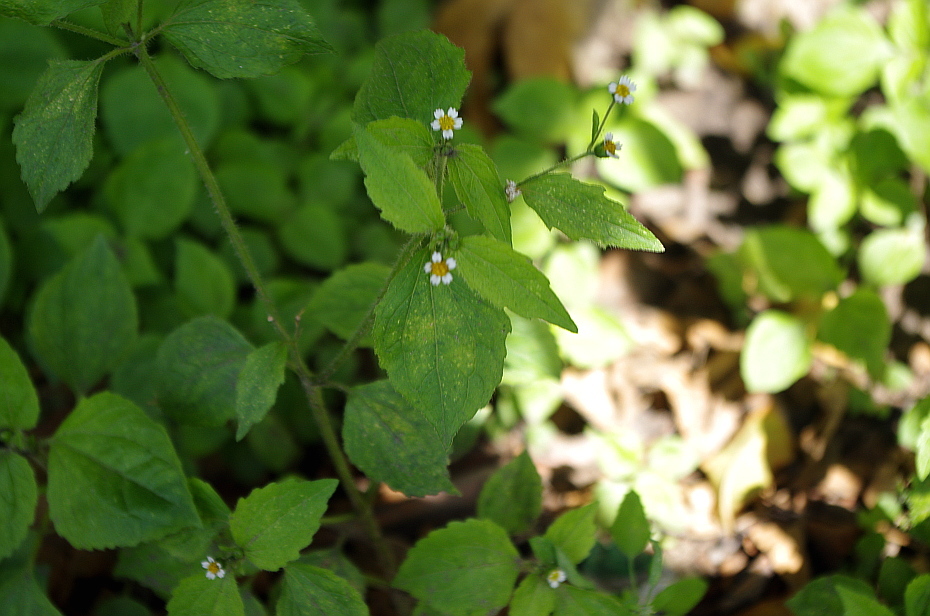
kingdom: Plantae
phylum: Tracheophyta
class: Magnoliopsida
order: Asterales
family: Asteraceae
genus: Galinsoga
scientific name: Galinsoga quadriradiata
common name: Shaggy soldier
